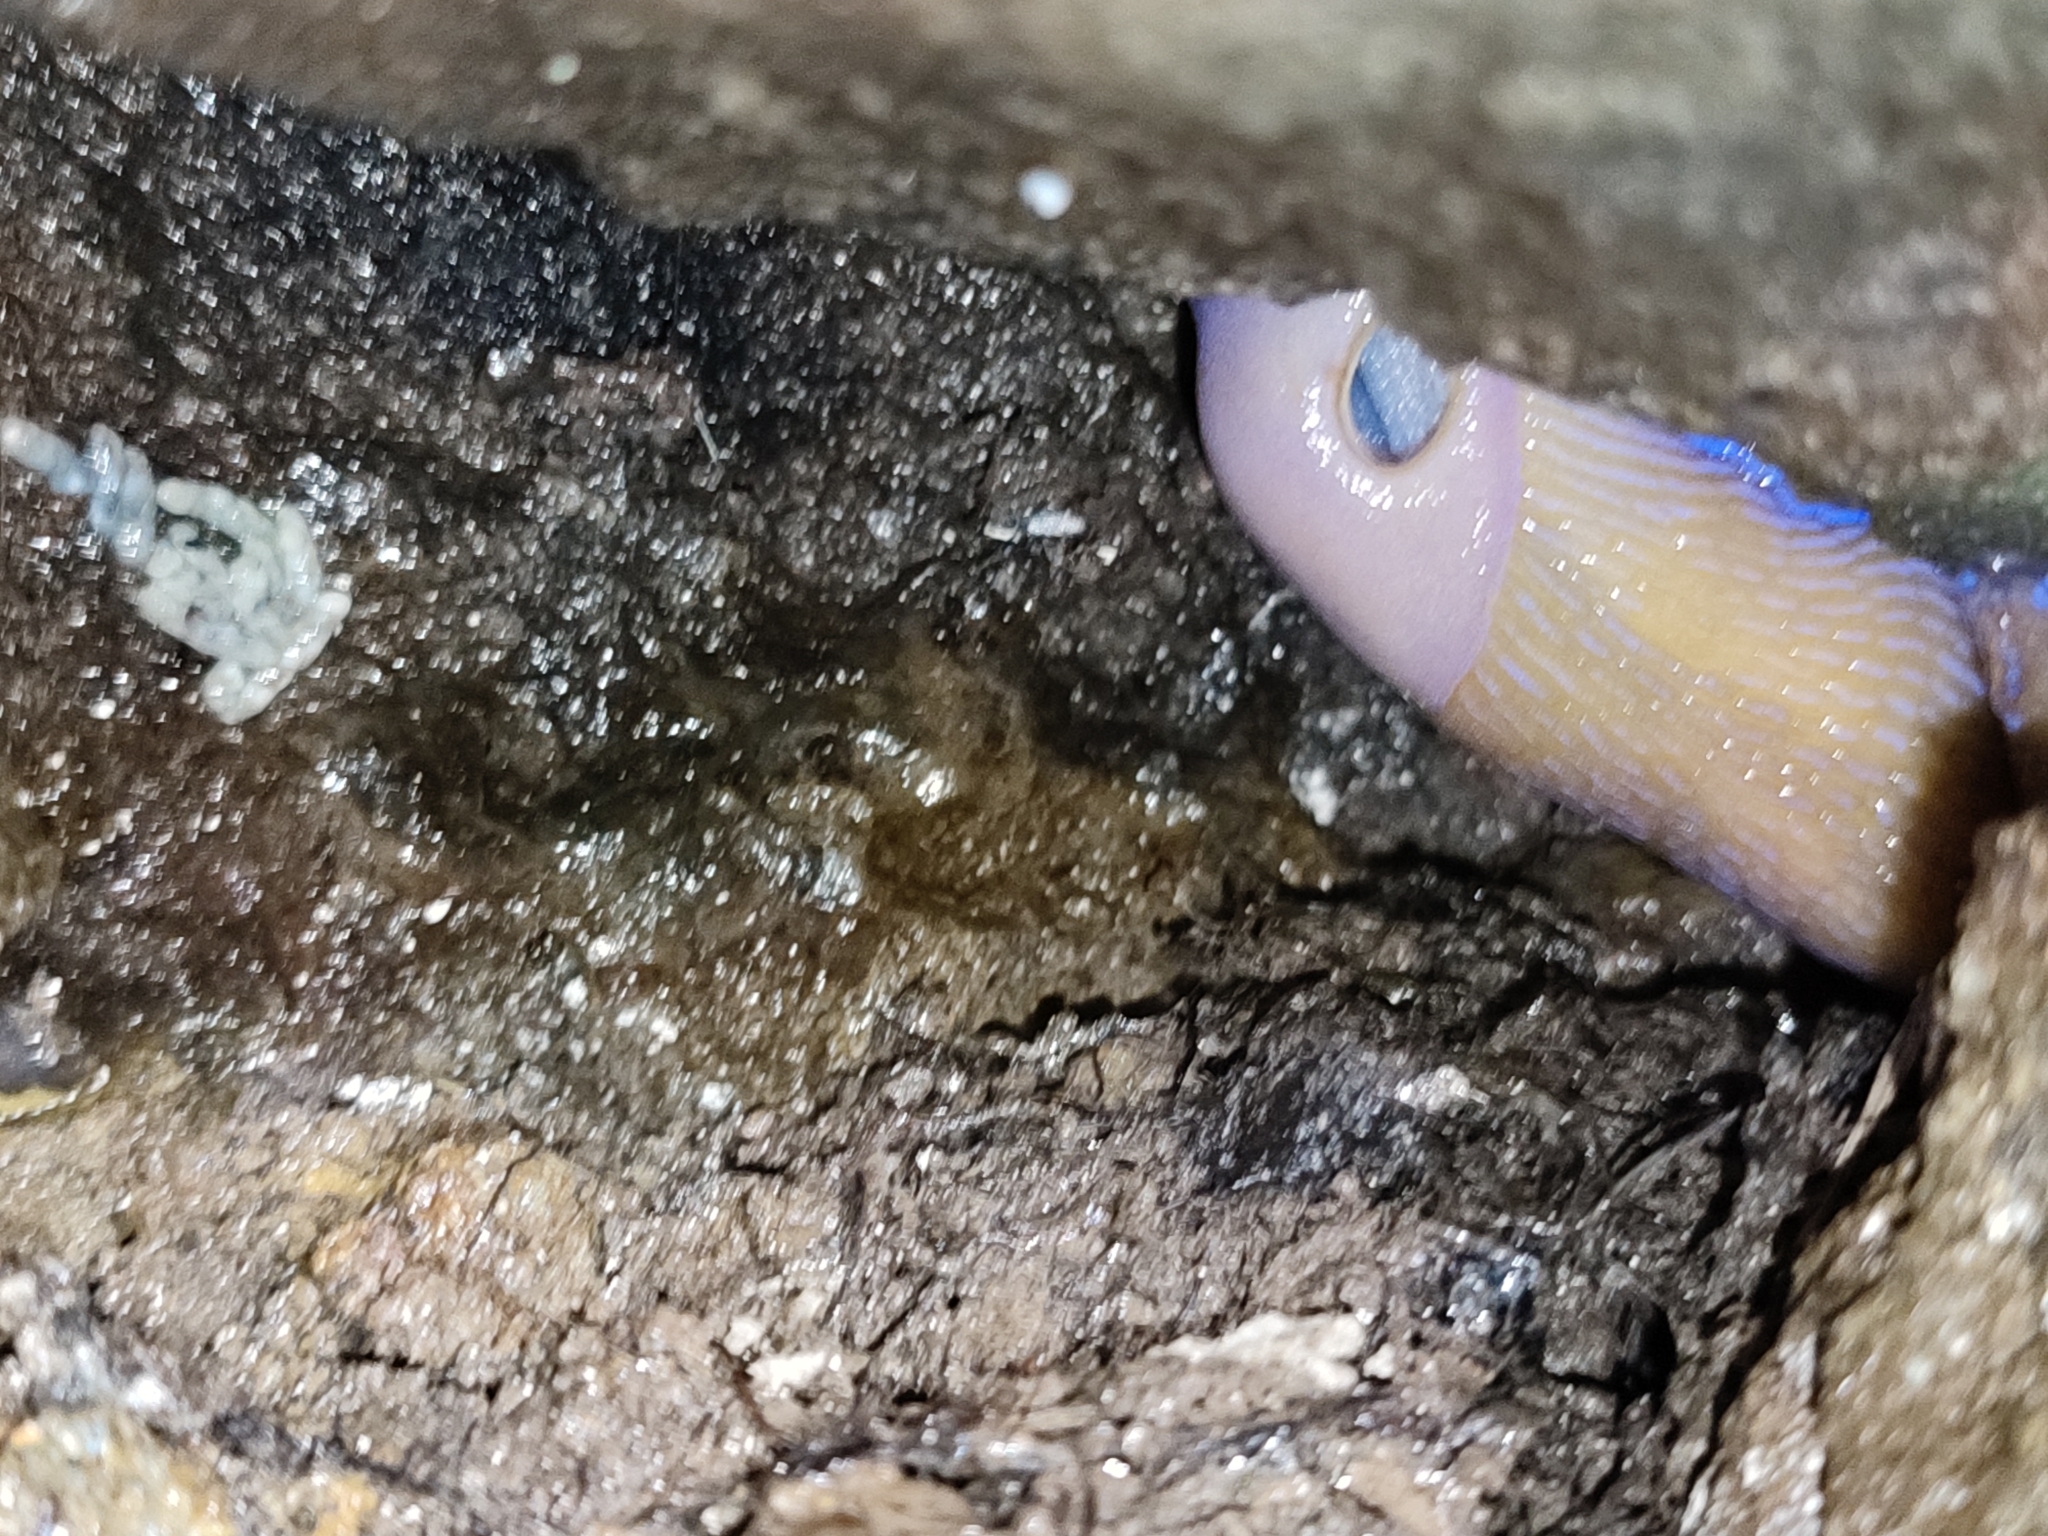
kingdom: Animalia
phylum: Mollusca
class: Gastropoda
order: Stylommatophora
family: Limacidae
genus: Bielzia
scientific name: Bielzia coerulans
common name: Carpathian blue slug
